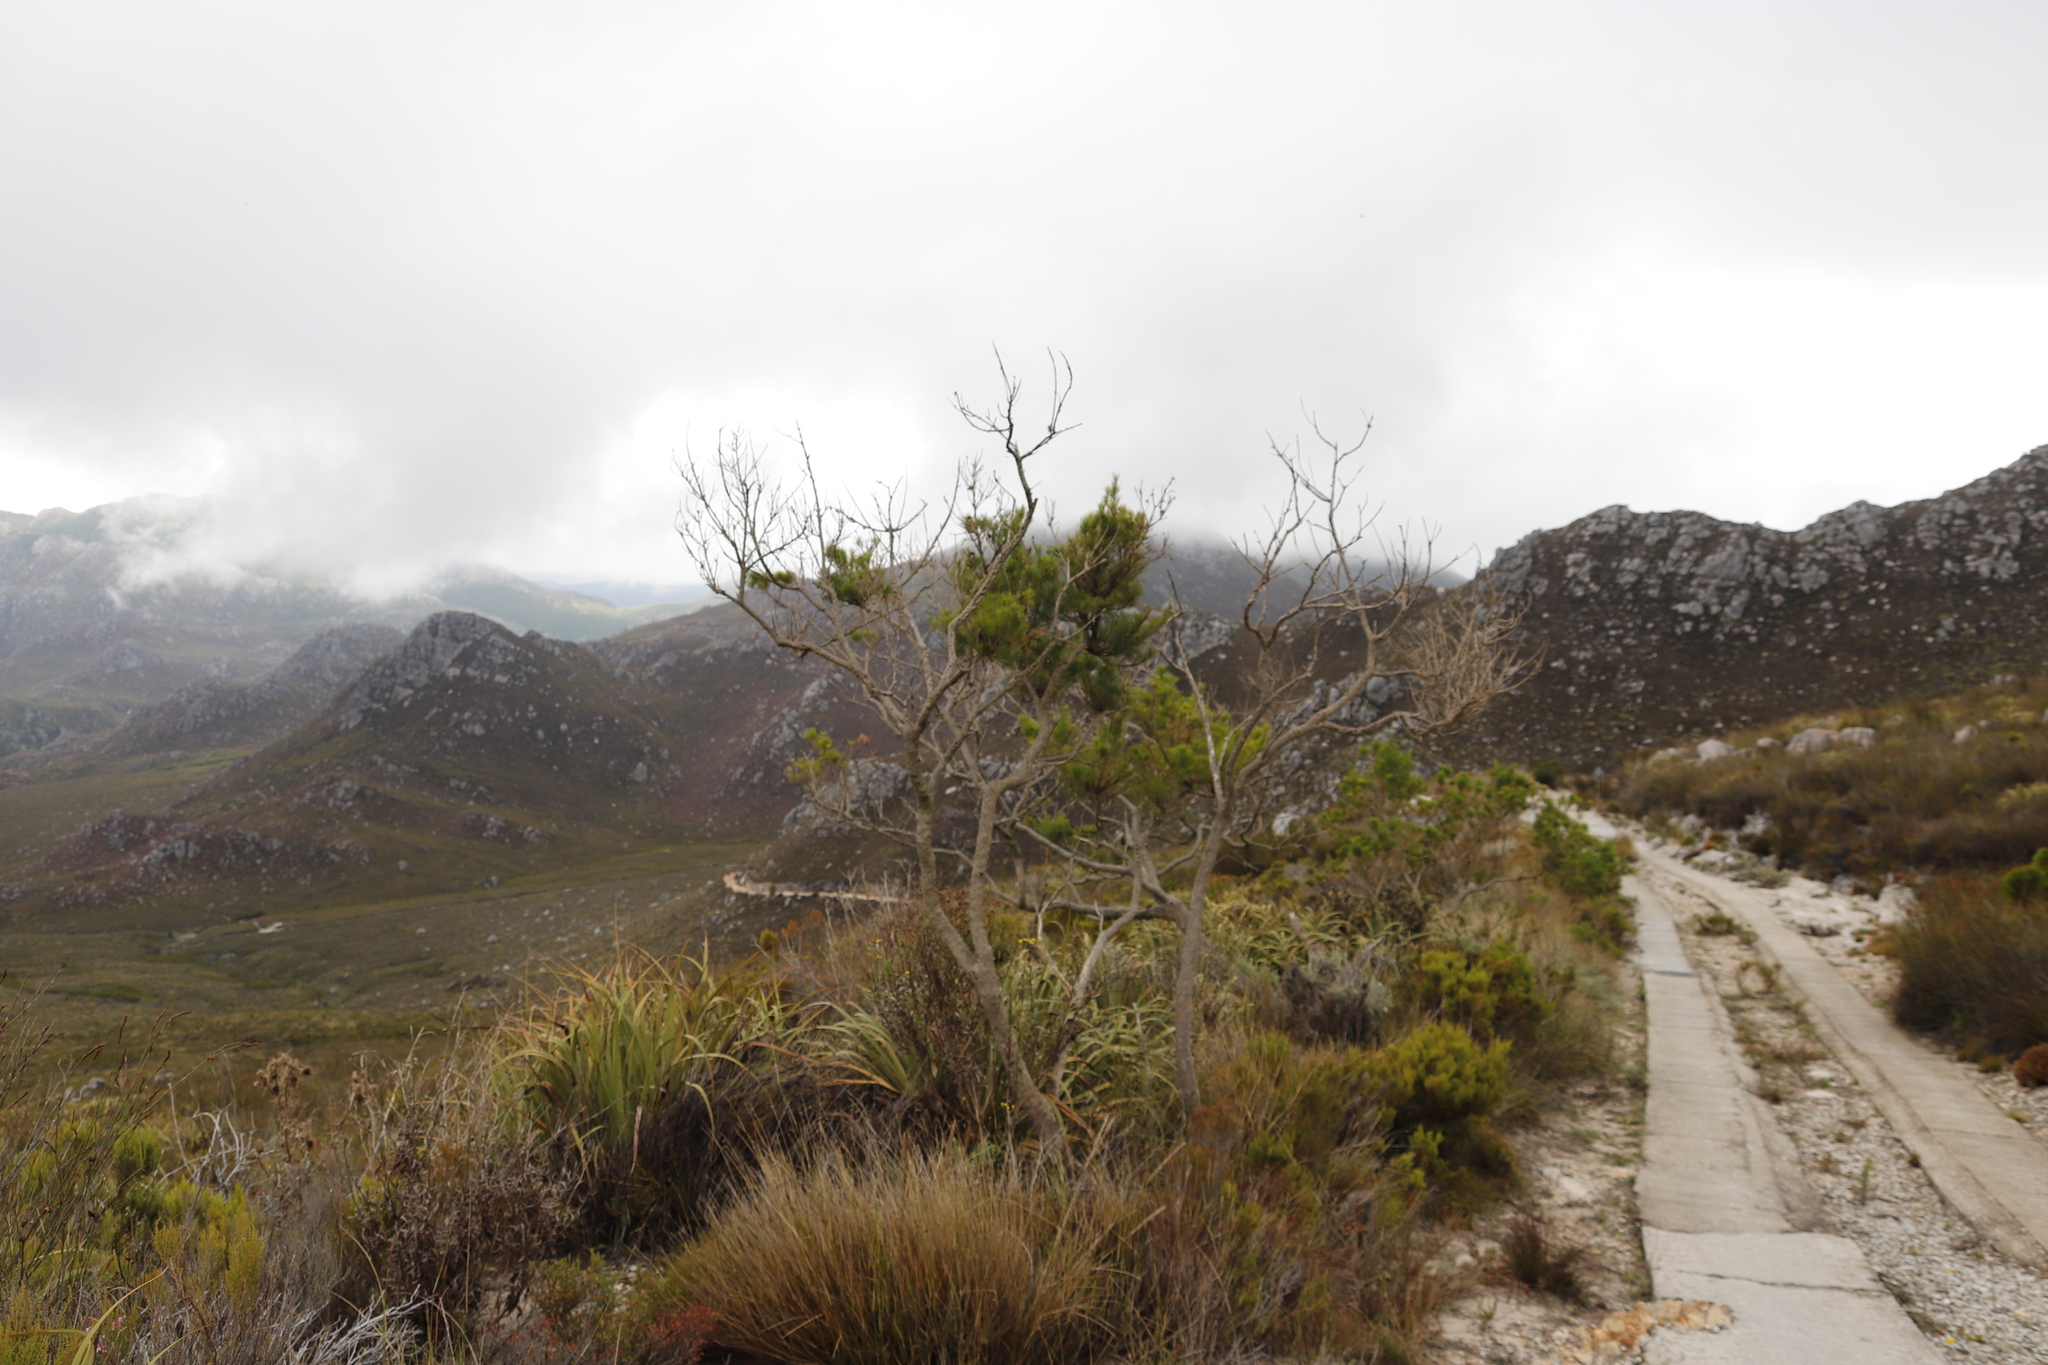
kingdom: Plantae
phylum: Tracheophyta
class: Liliopsida
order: Poales
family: Cyperaceae
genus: Tetraria
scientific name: Tetraria thermalis
